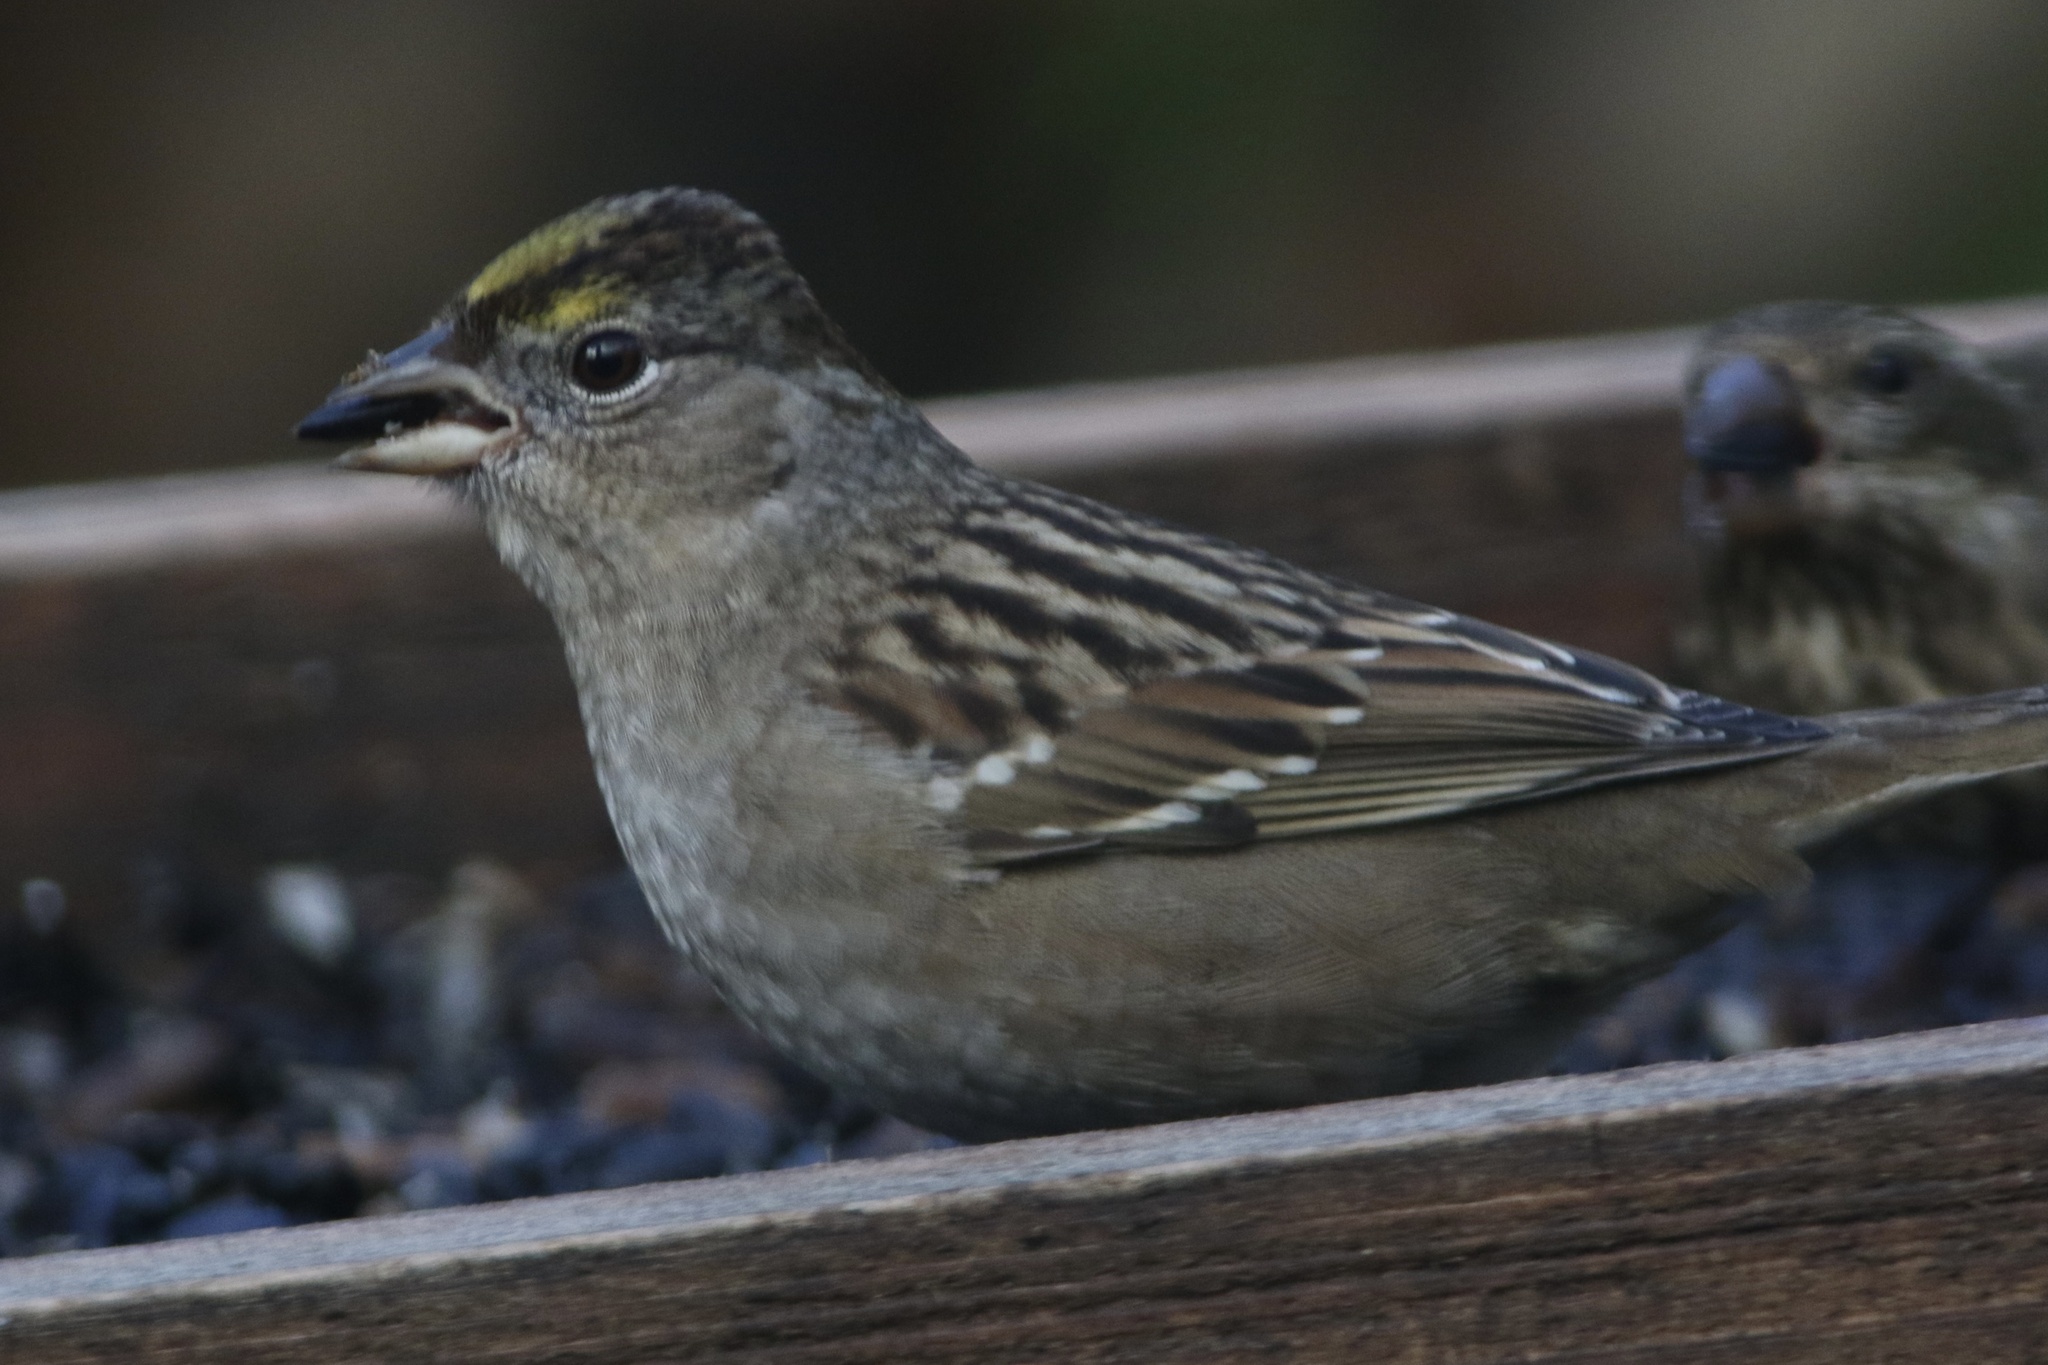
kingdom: Animalia
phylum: Chordata
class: Aves
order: Passeriformes
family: Passerellidae
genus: Zonotrichia
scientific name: Zonotrichia atricapilla
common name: Golden-crowned sparrow
